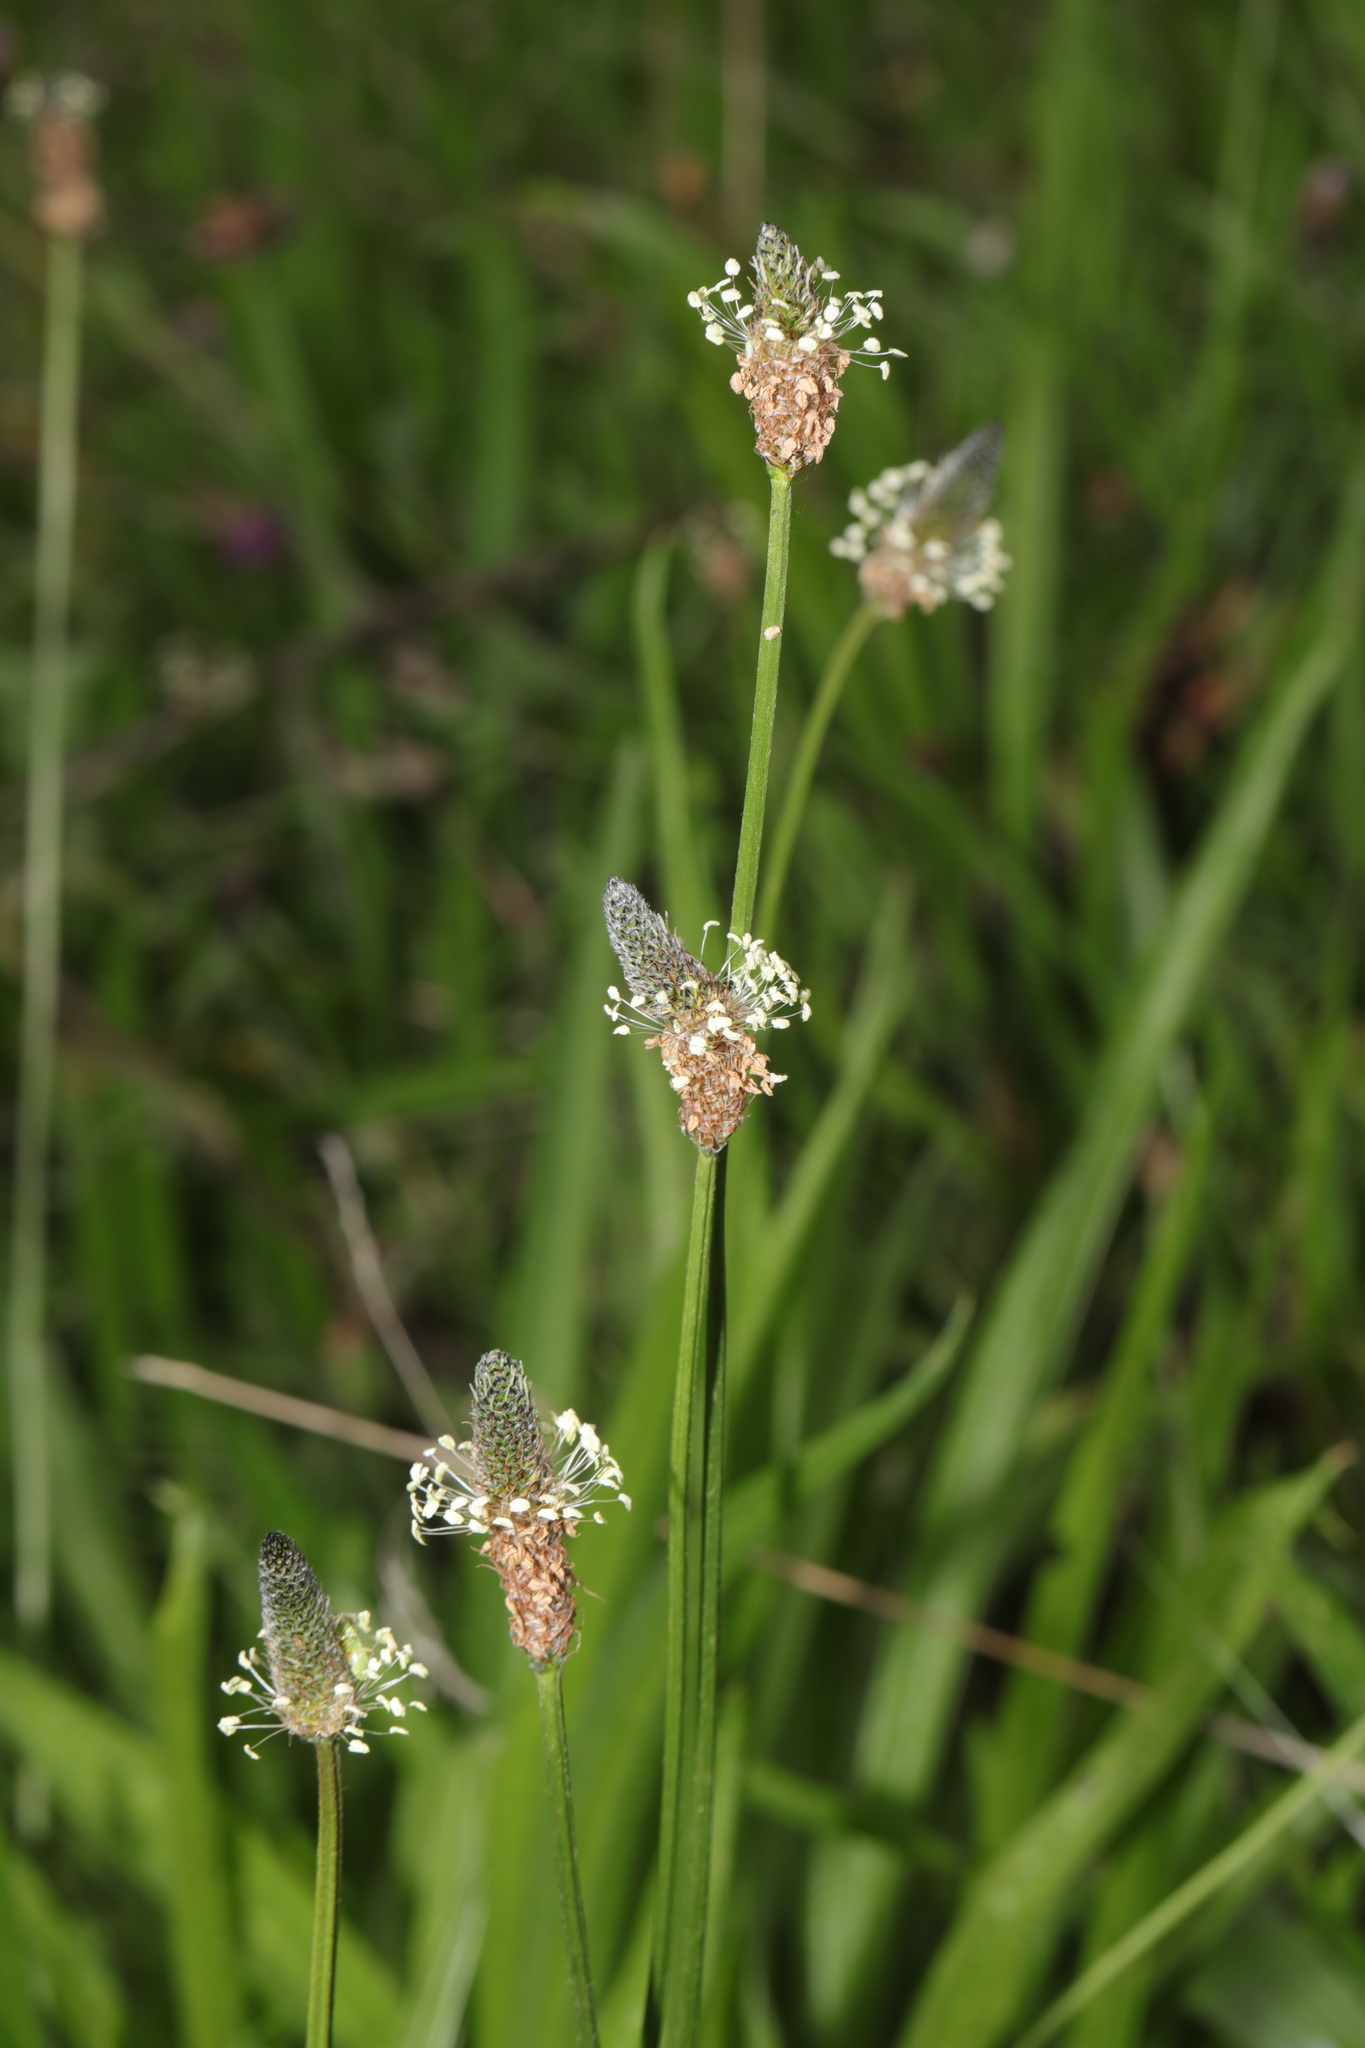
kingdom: Plantae
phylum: Tracheophyta
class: Magnoliopsida
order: Lamiales
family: Plantaginaceae
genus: Plantago
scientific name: Plantago lanceolata
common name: Ribwort plantain
